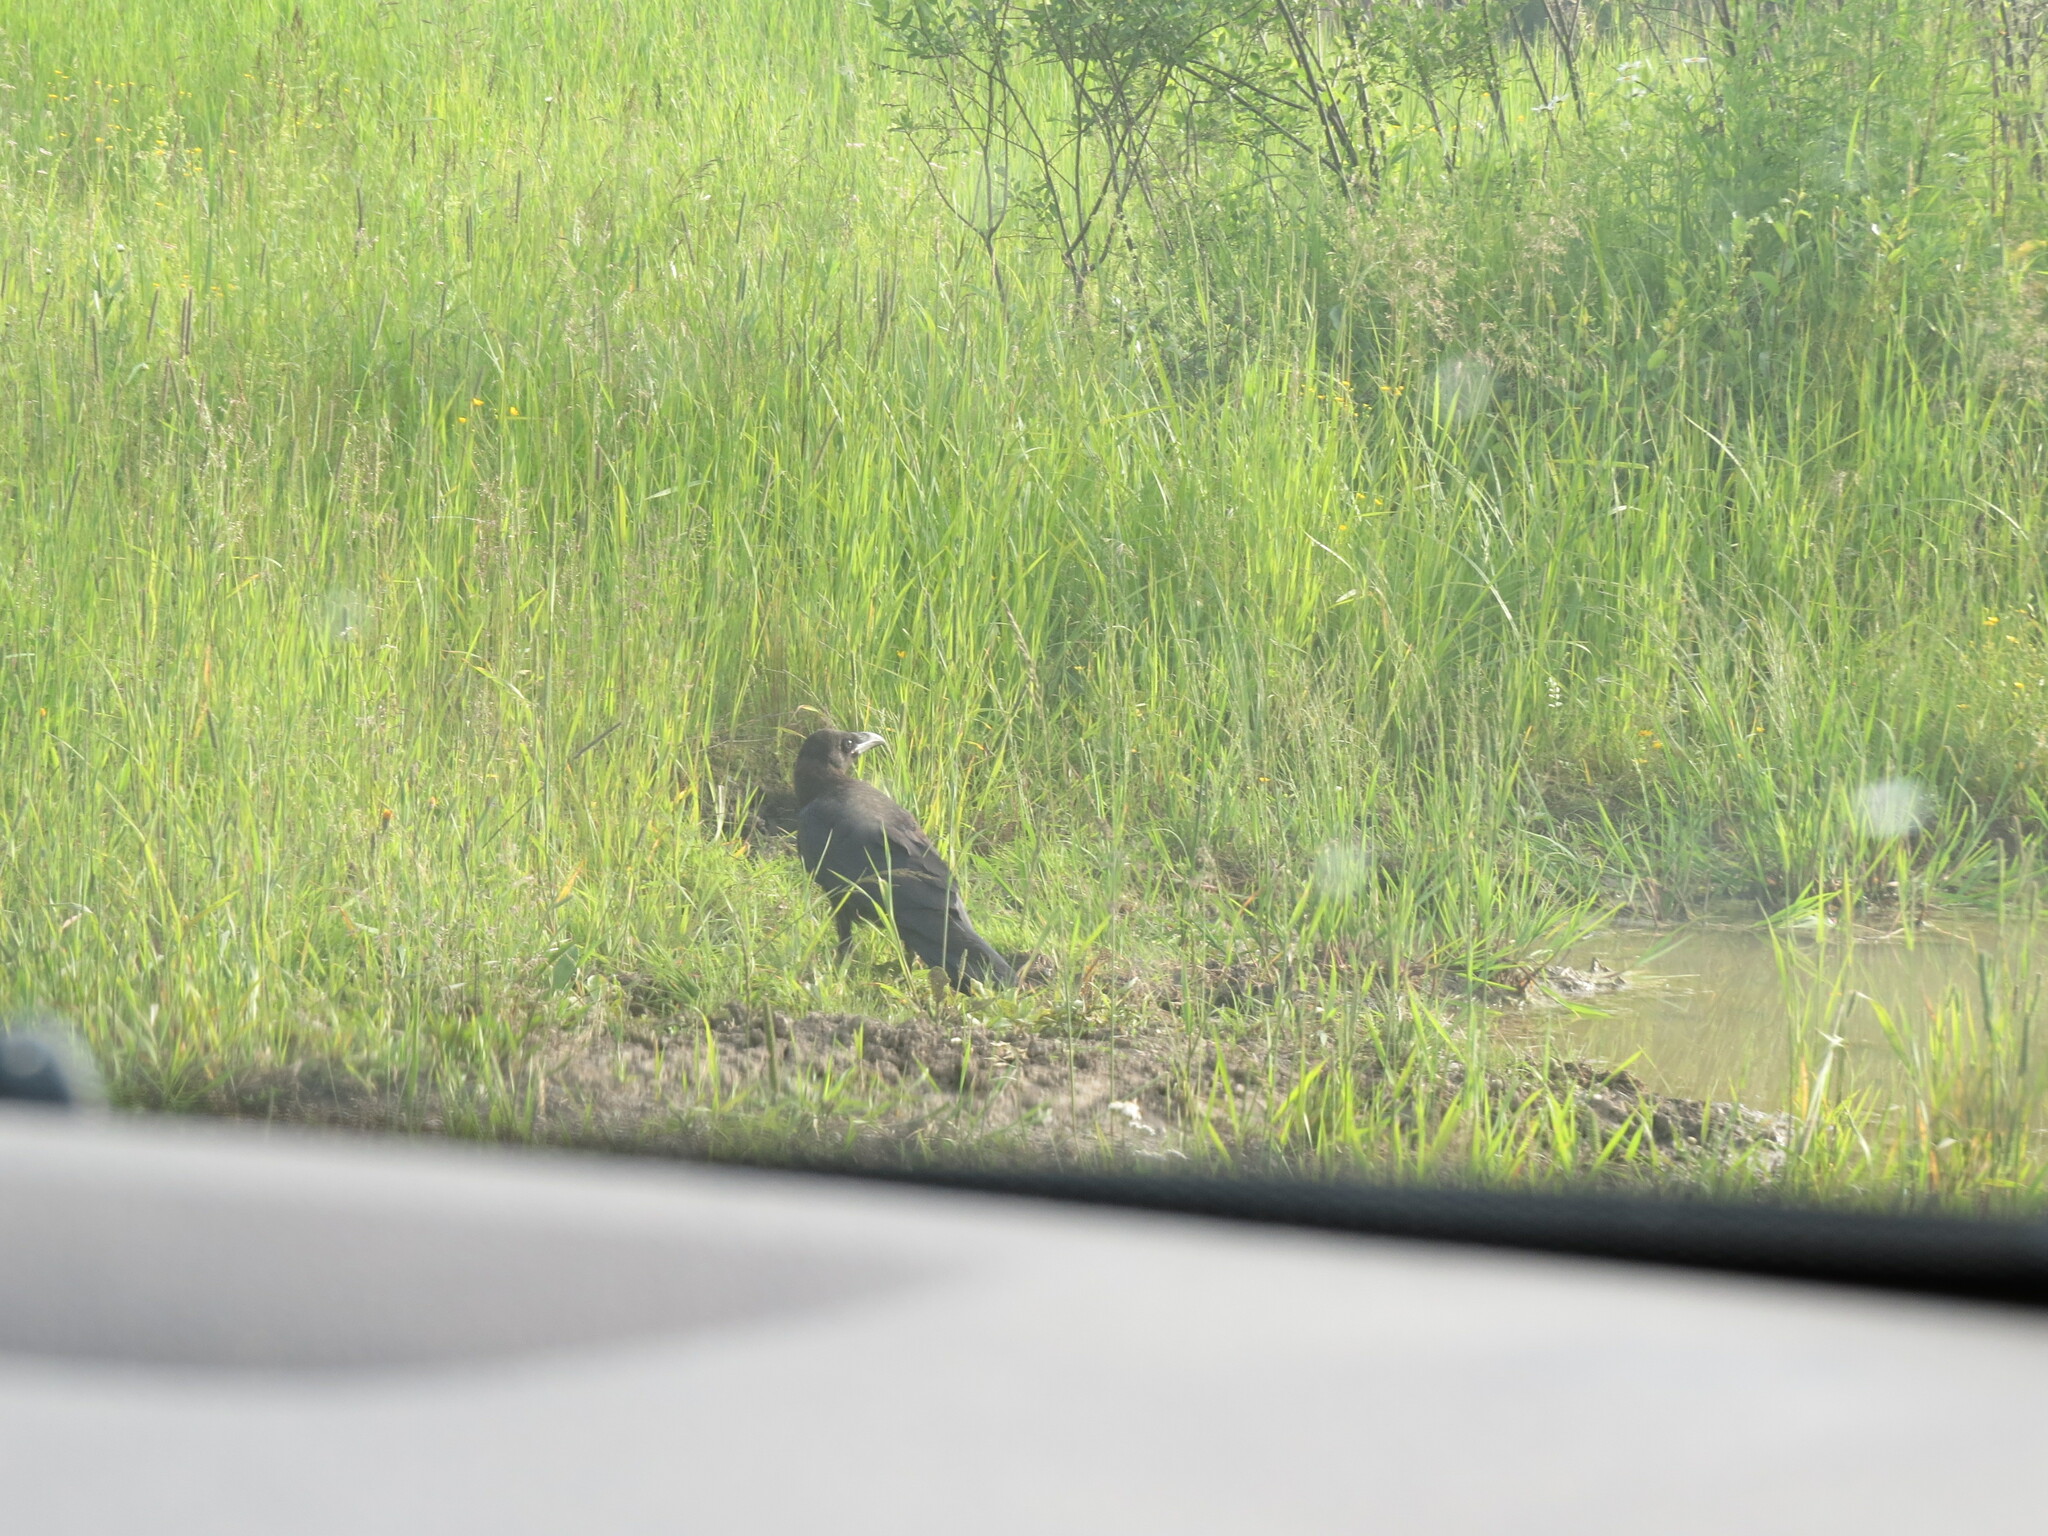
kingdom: Animalia
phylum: Chordata
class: Aves
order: Passeriformes
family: Corvidae
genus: Corvus
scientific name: Corvus corax
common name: Common raven
